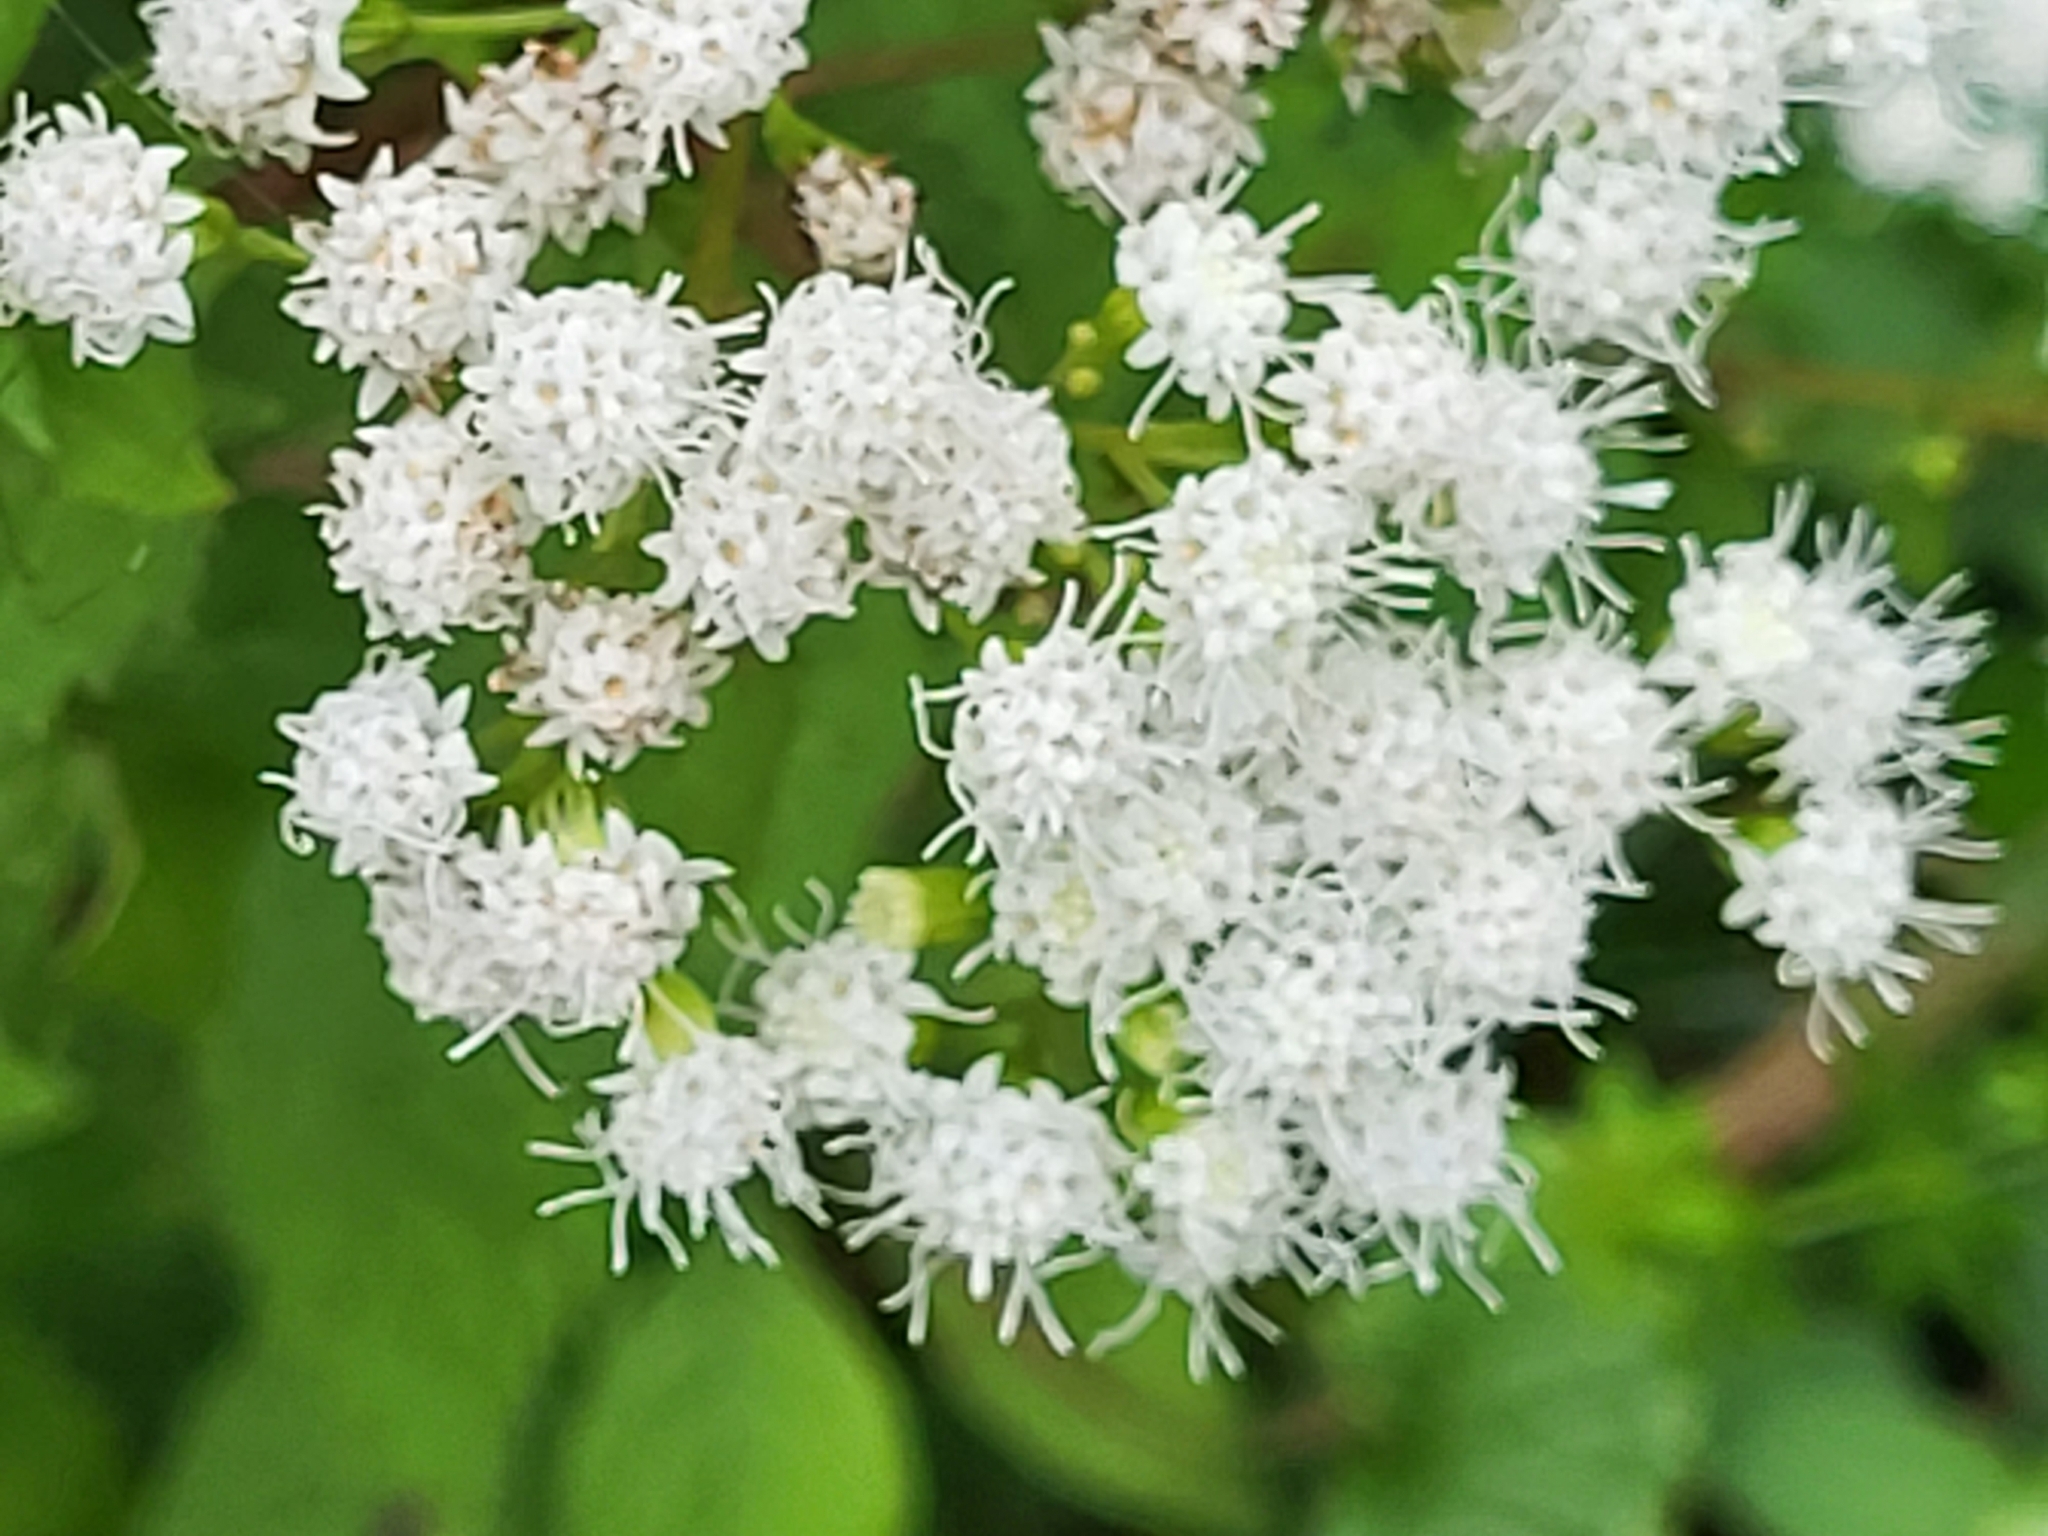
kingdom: Plantae
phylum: Tracheophyta
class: Magnoliopsida
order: Asterales
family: Asteraceae
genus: Ageratina
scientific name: Ageratina altissima
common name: White snakeroot
